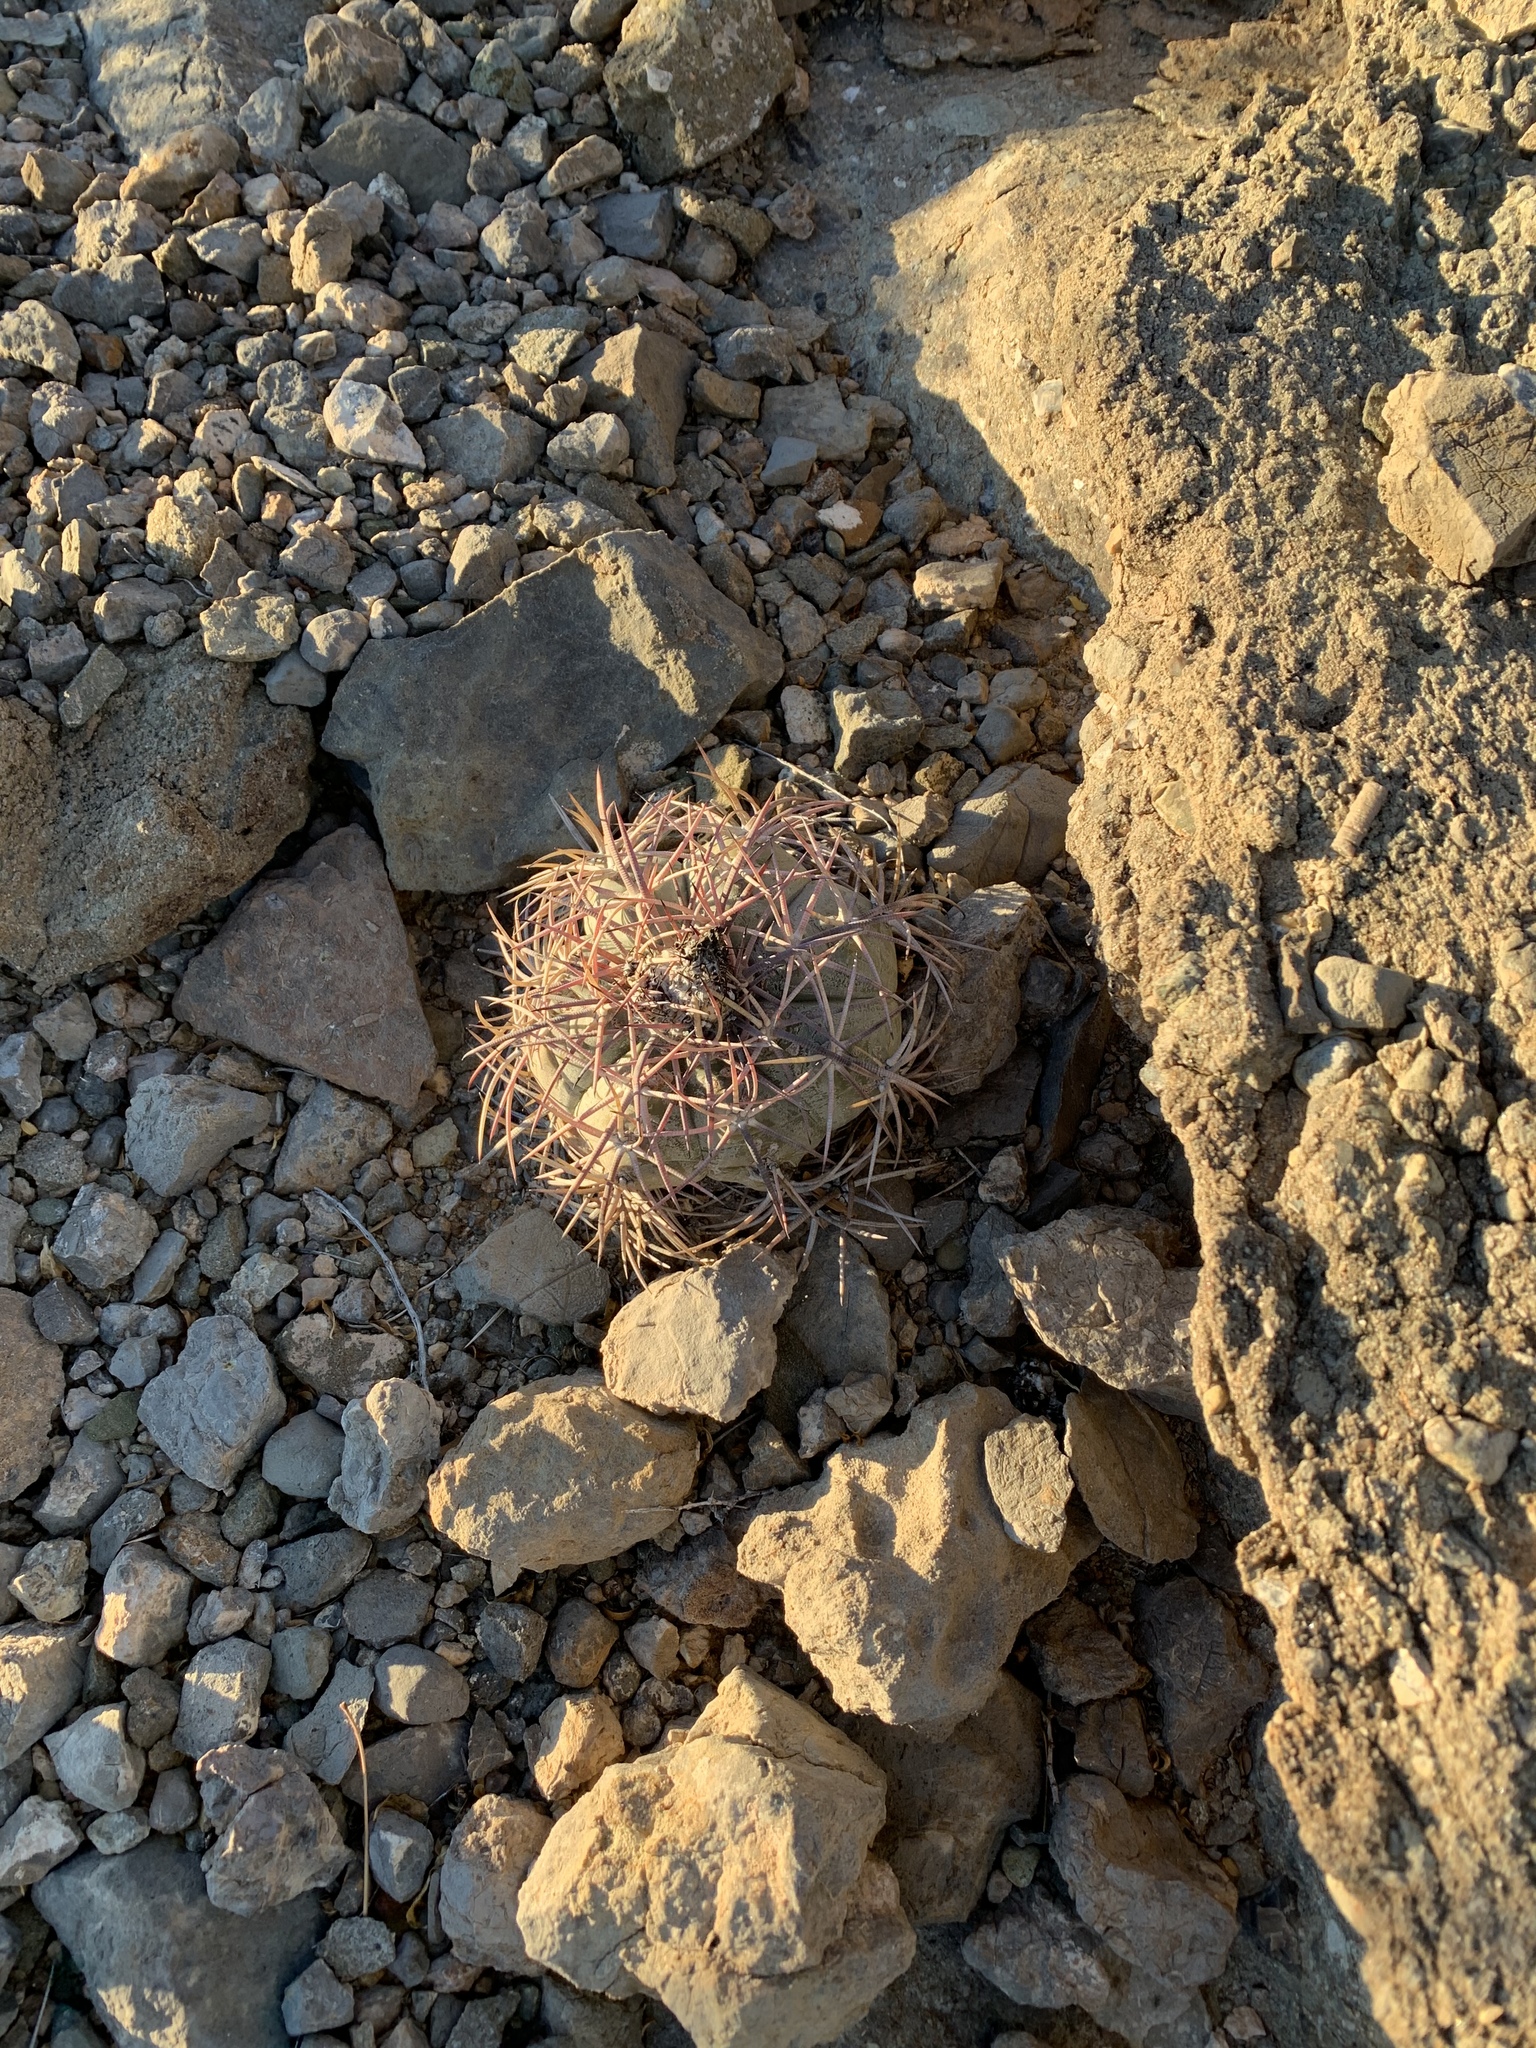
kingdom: Plantae
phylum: Tracheophyta
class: Magnoliopsida
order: Caryophyllales
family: Cactaceae
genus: Echinocactus
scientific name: Echinocactus horizonthalonius
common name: Devilshead
